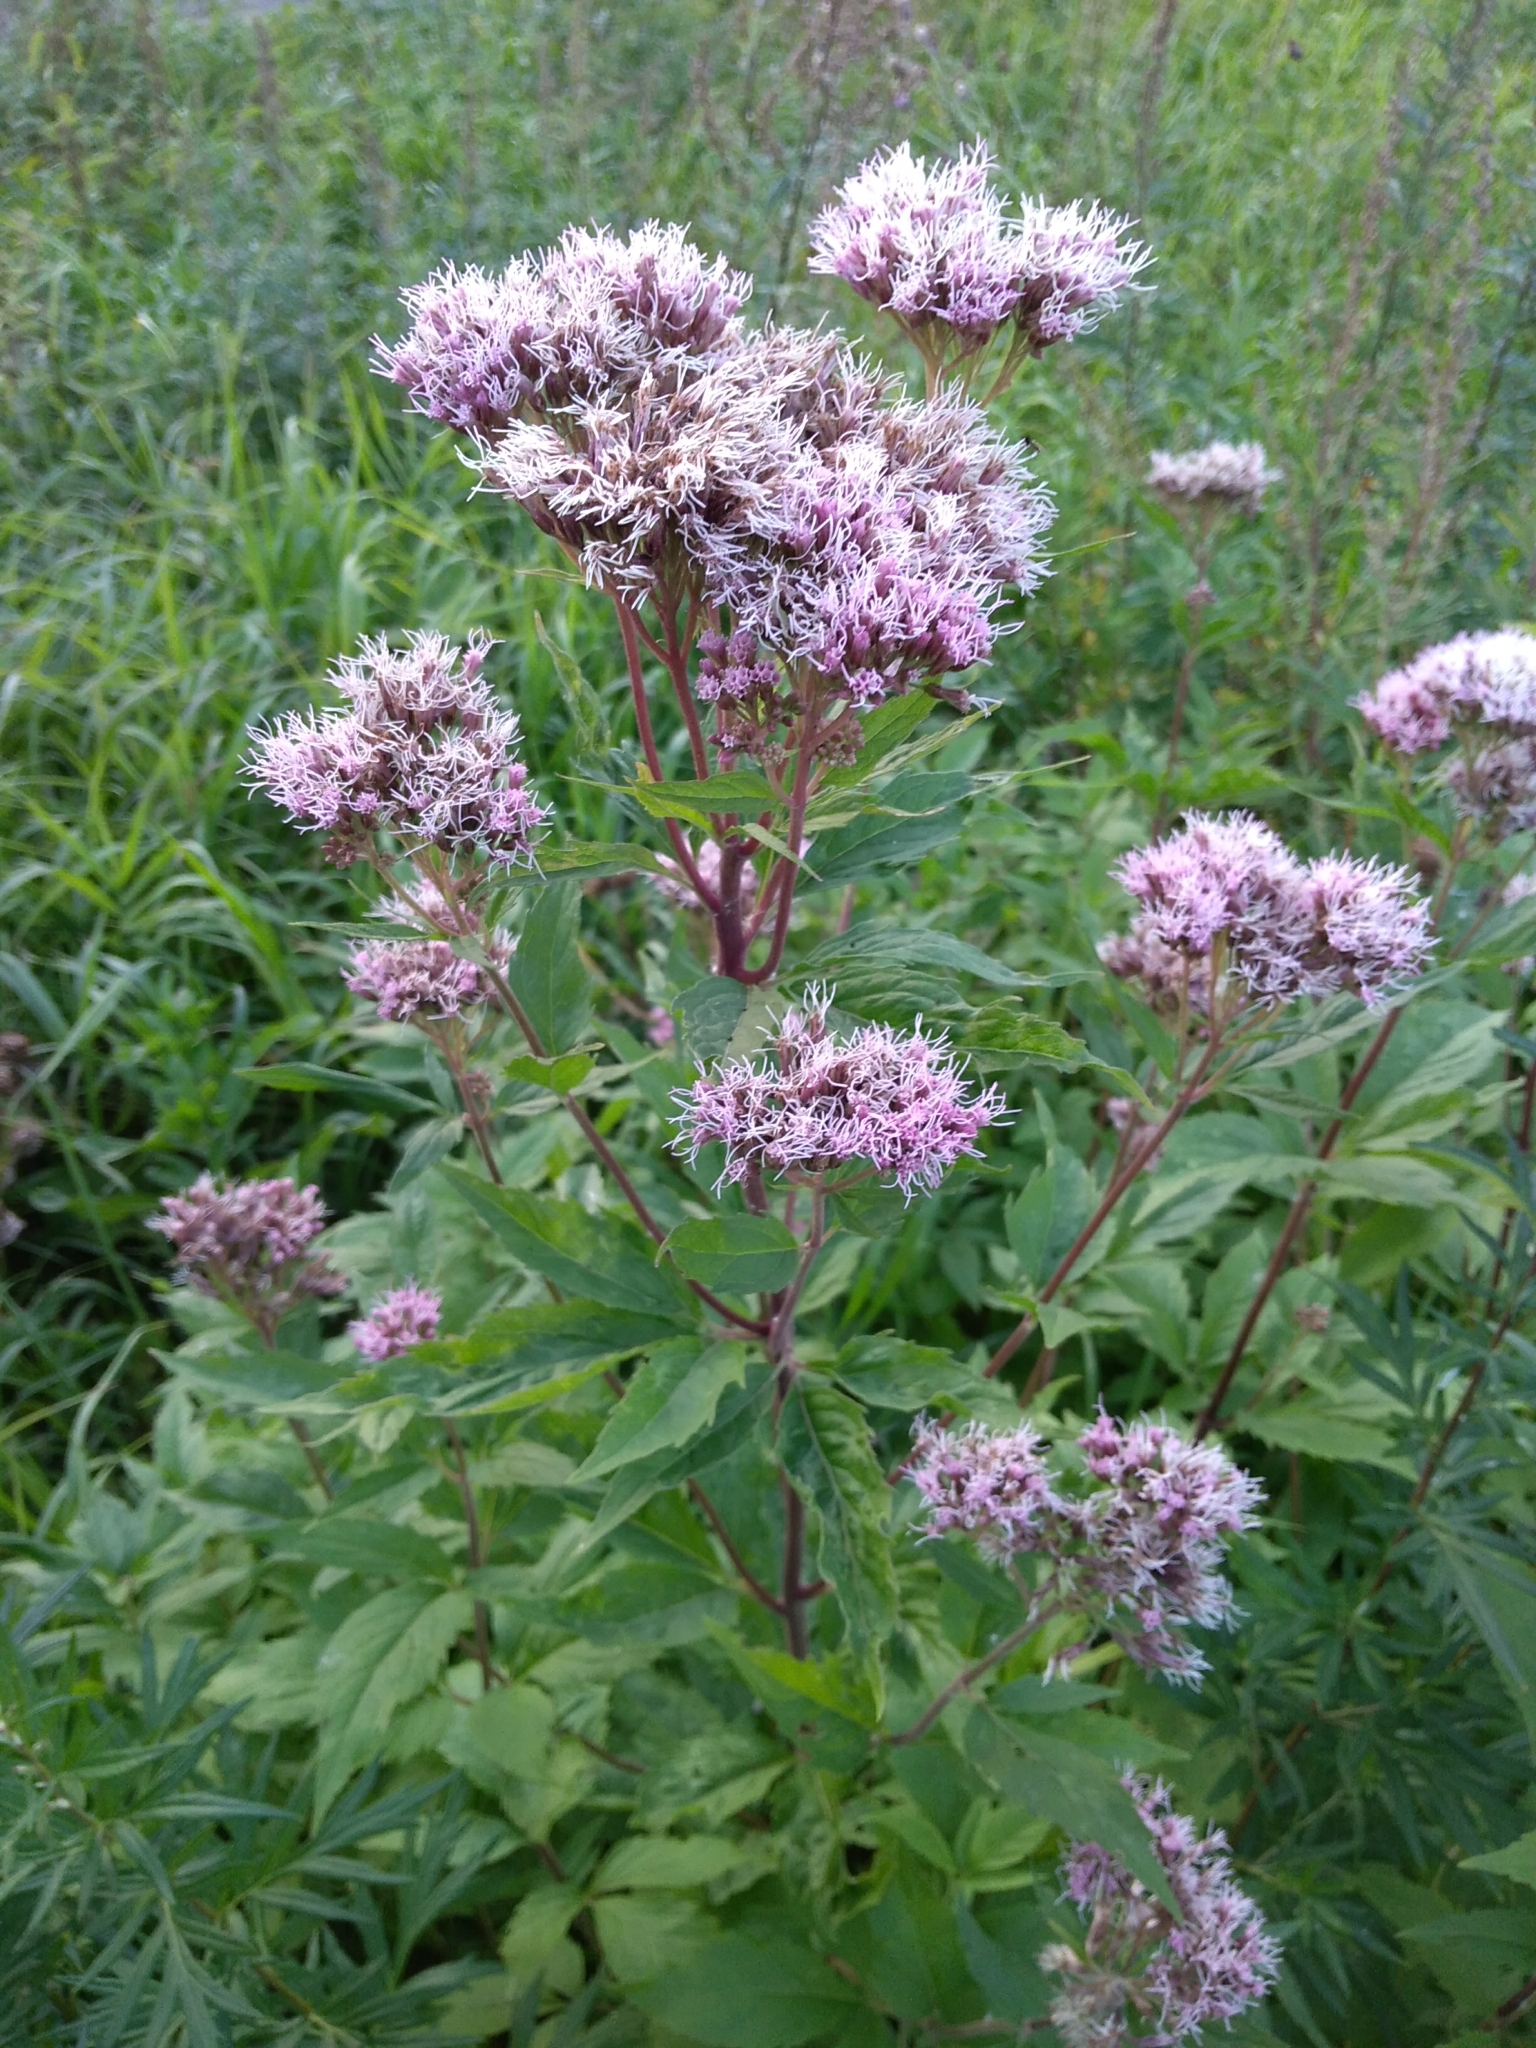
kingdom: Plantae
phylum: Tracheophyta
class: Magnoliopsida
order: Asterales
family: Asteraceae
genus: Eupatorium
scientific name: Eupatorium cannabinum
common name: Hemp-agrimony
